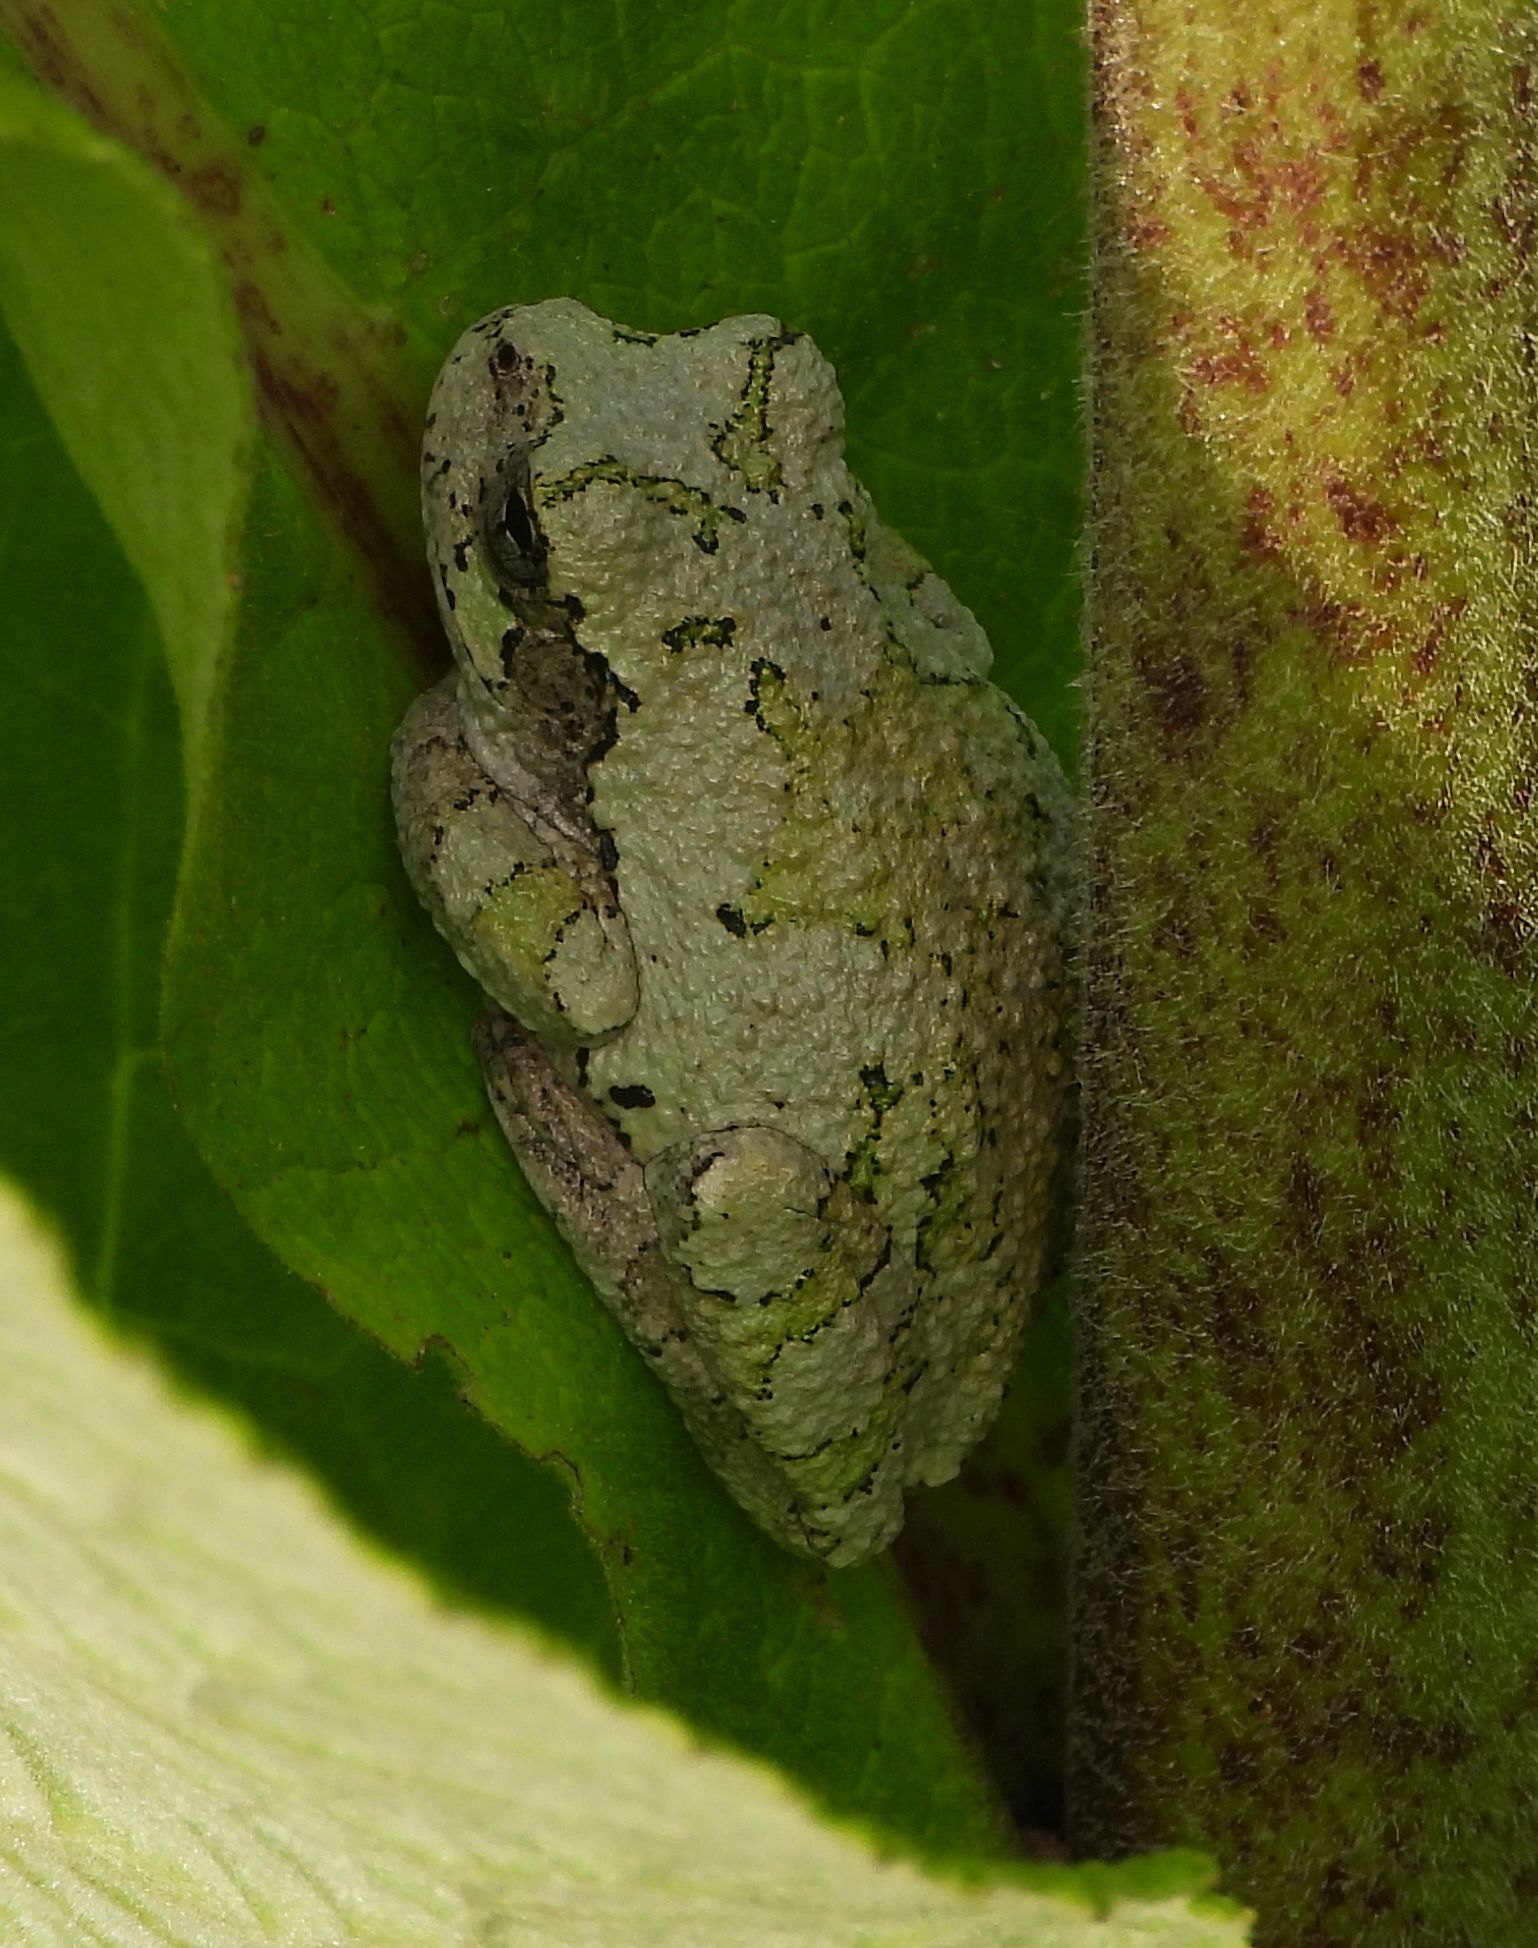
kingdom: Animalia
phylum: Chordata
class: Amphibia
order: Anura
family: Hylidae
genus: Dryophytes
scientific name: Dryophytes versicolor
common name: Gray treefrog
